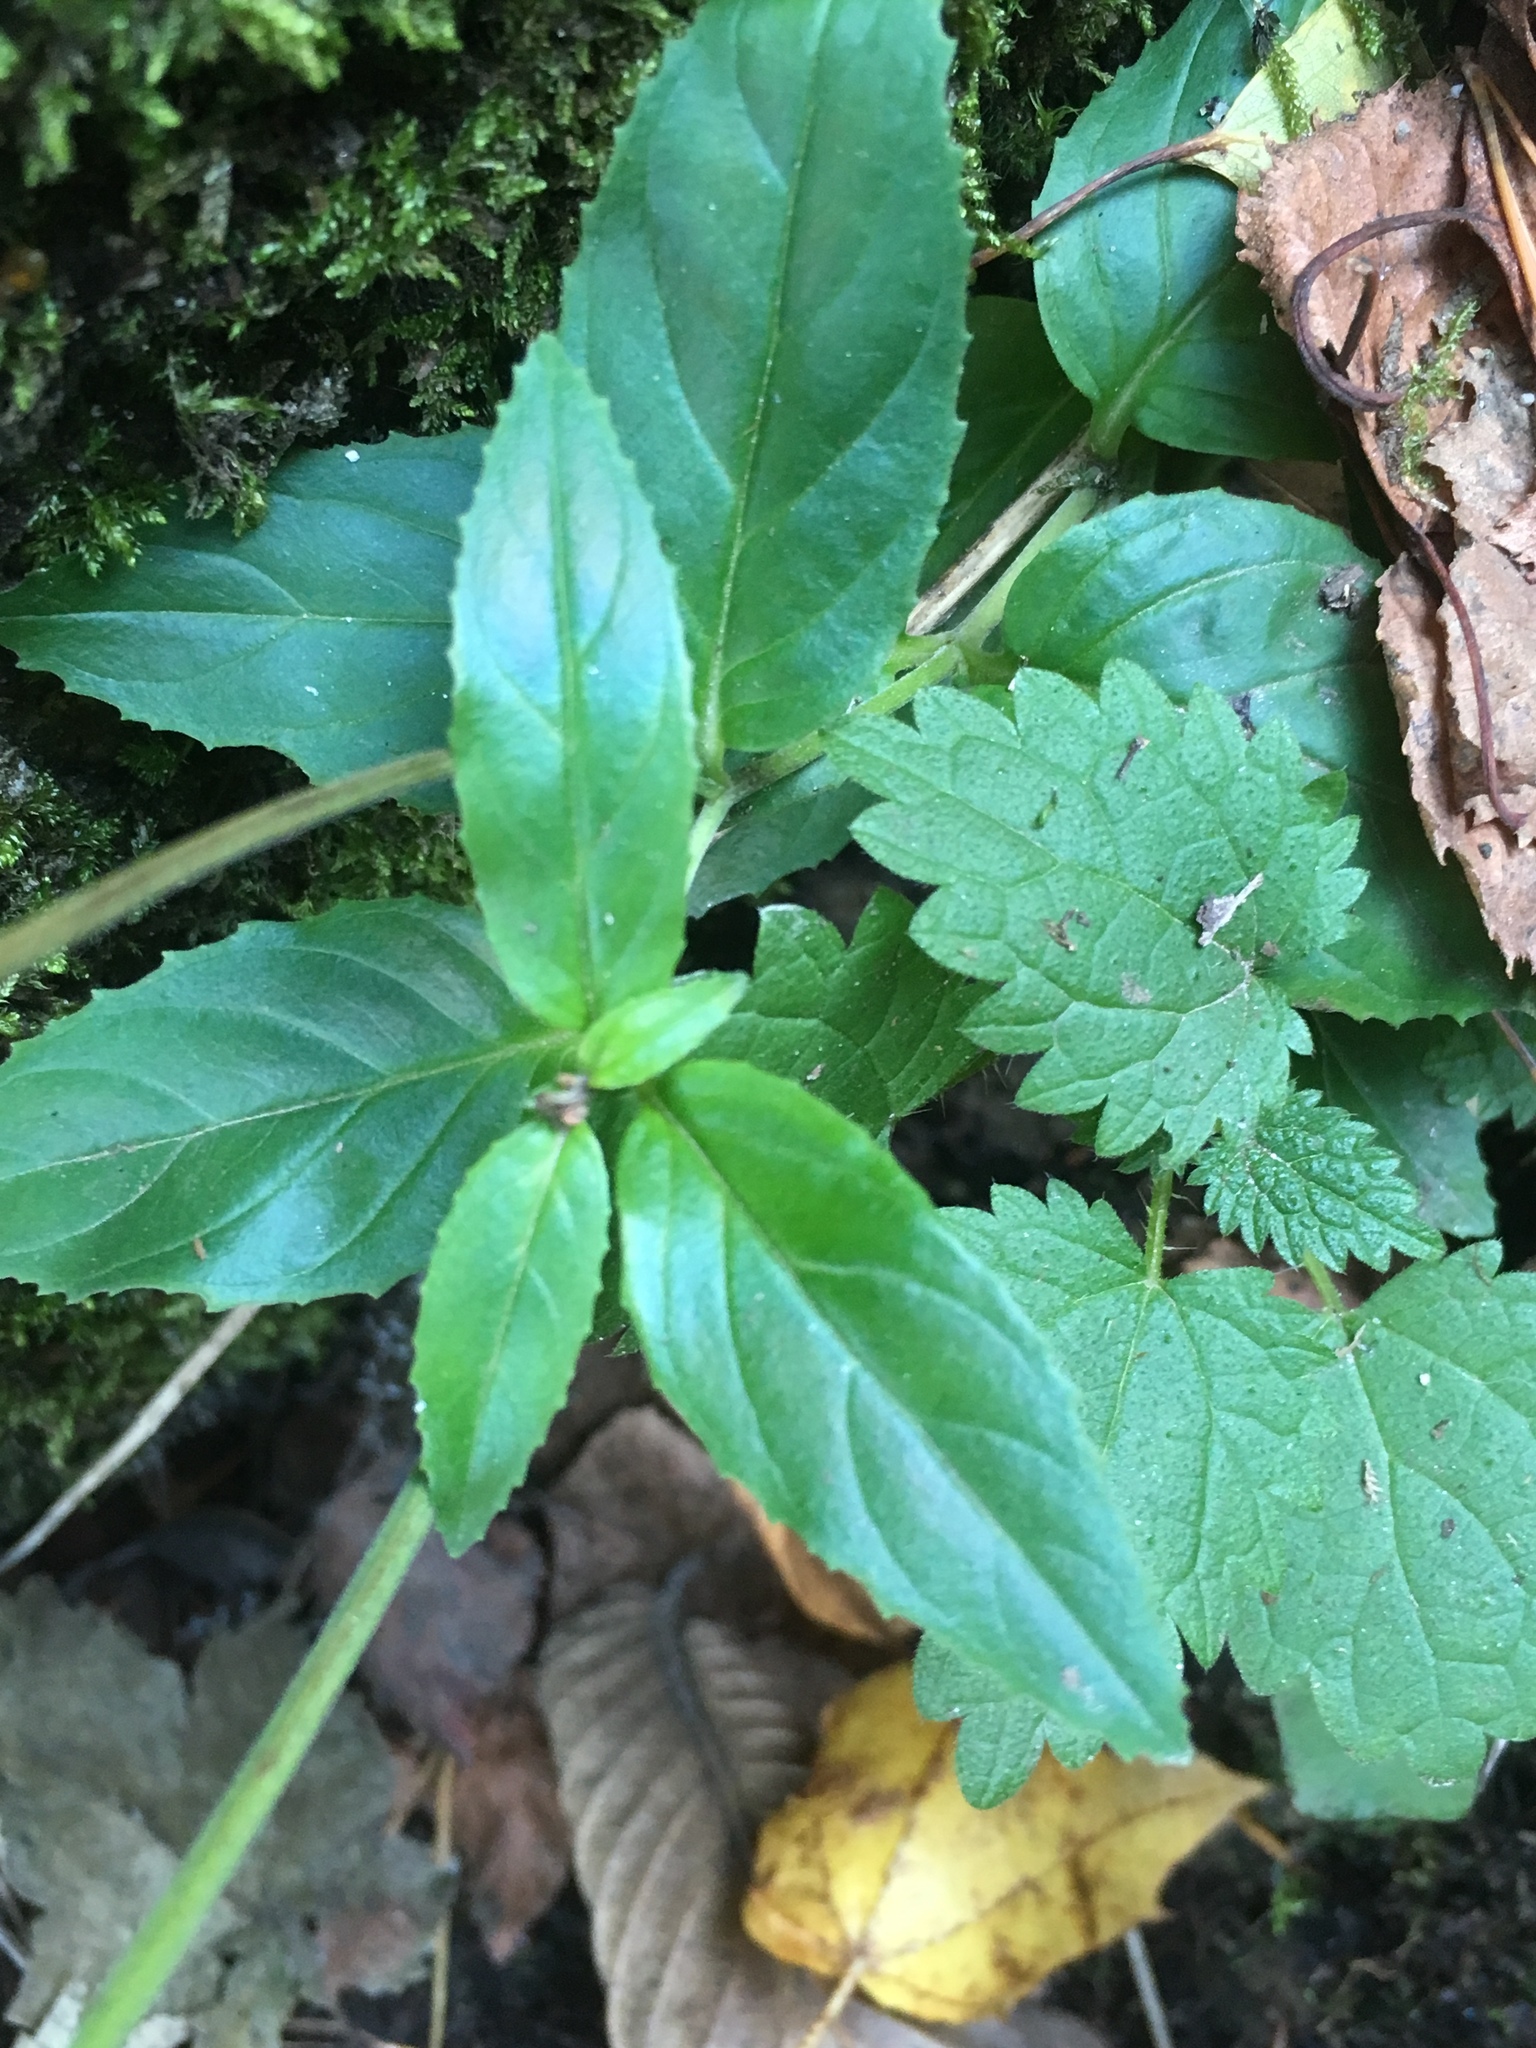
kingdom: Plantae
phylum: Tracheophyta
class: Magnoliopsida
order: Myrtales
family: Onagraceae
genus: Chamaenerion
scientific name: Chamaenerion angustifolium
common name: Fireweed
